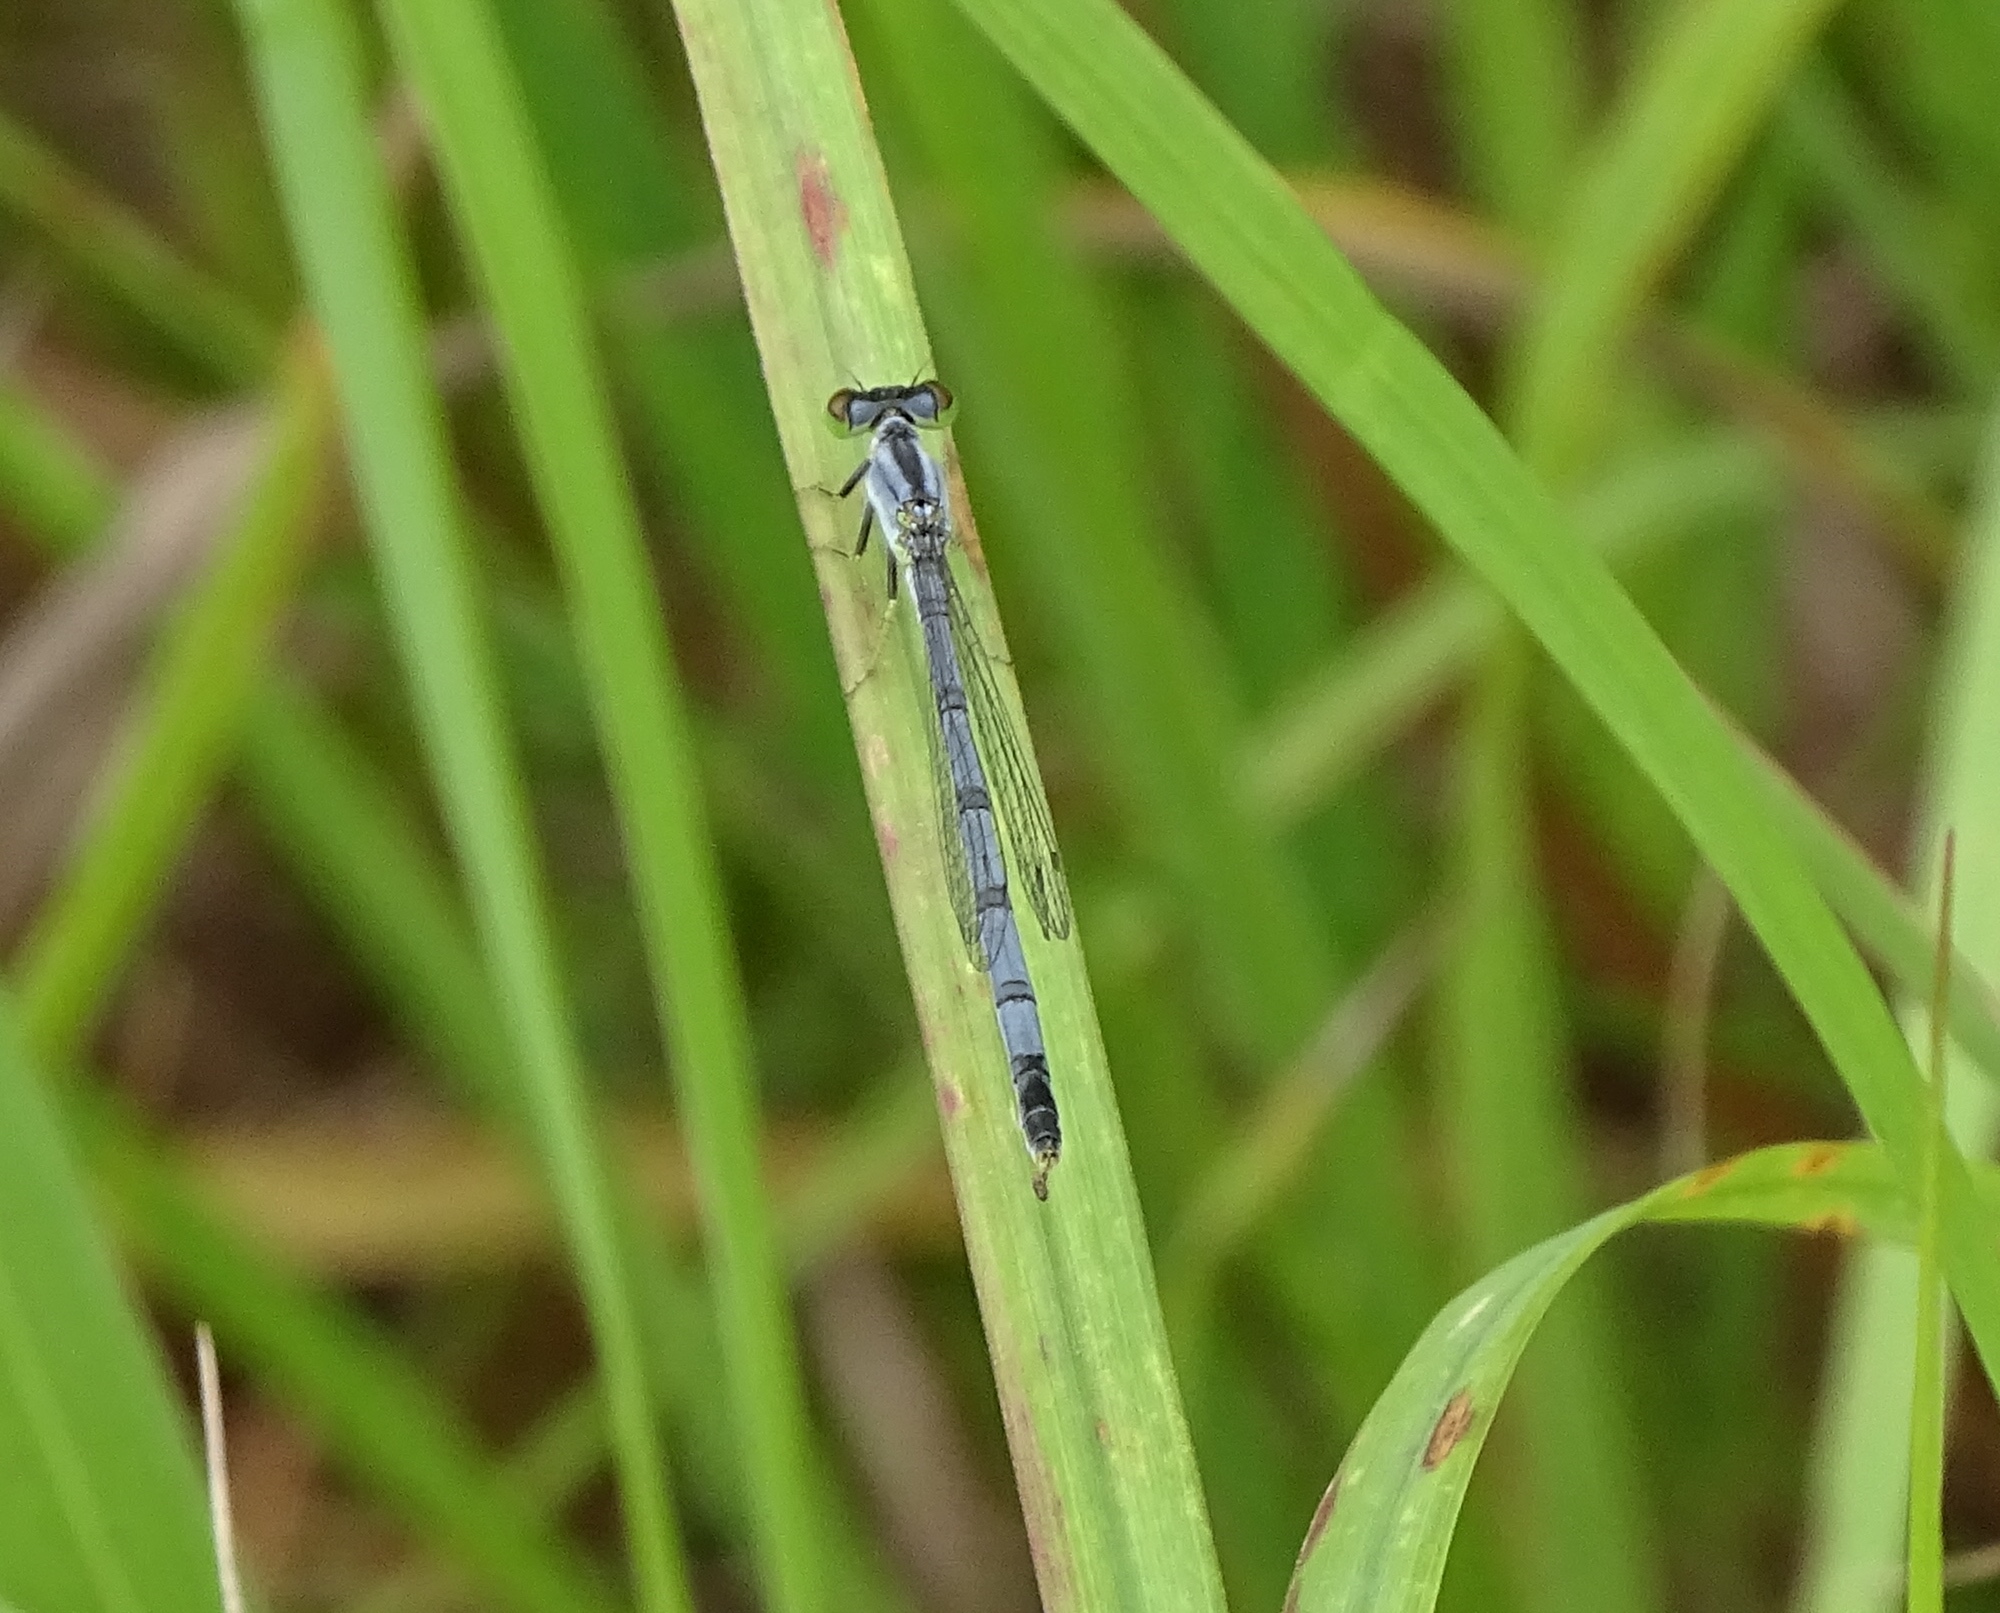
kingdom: Animalia
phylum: Arthropoda
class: Insecta
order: Odonata
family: Coenagrionidae
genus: Ischnura
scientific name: Ischnura verticalis
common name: Eastern forktail
